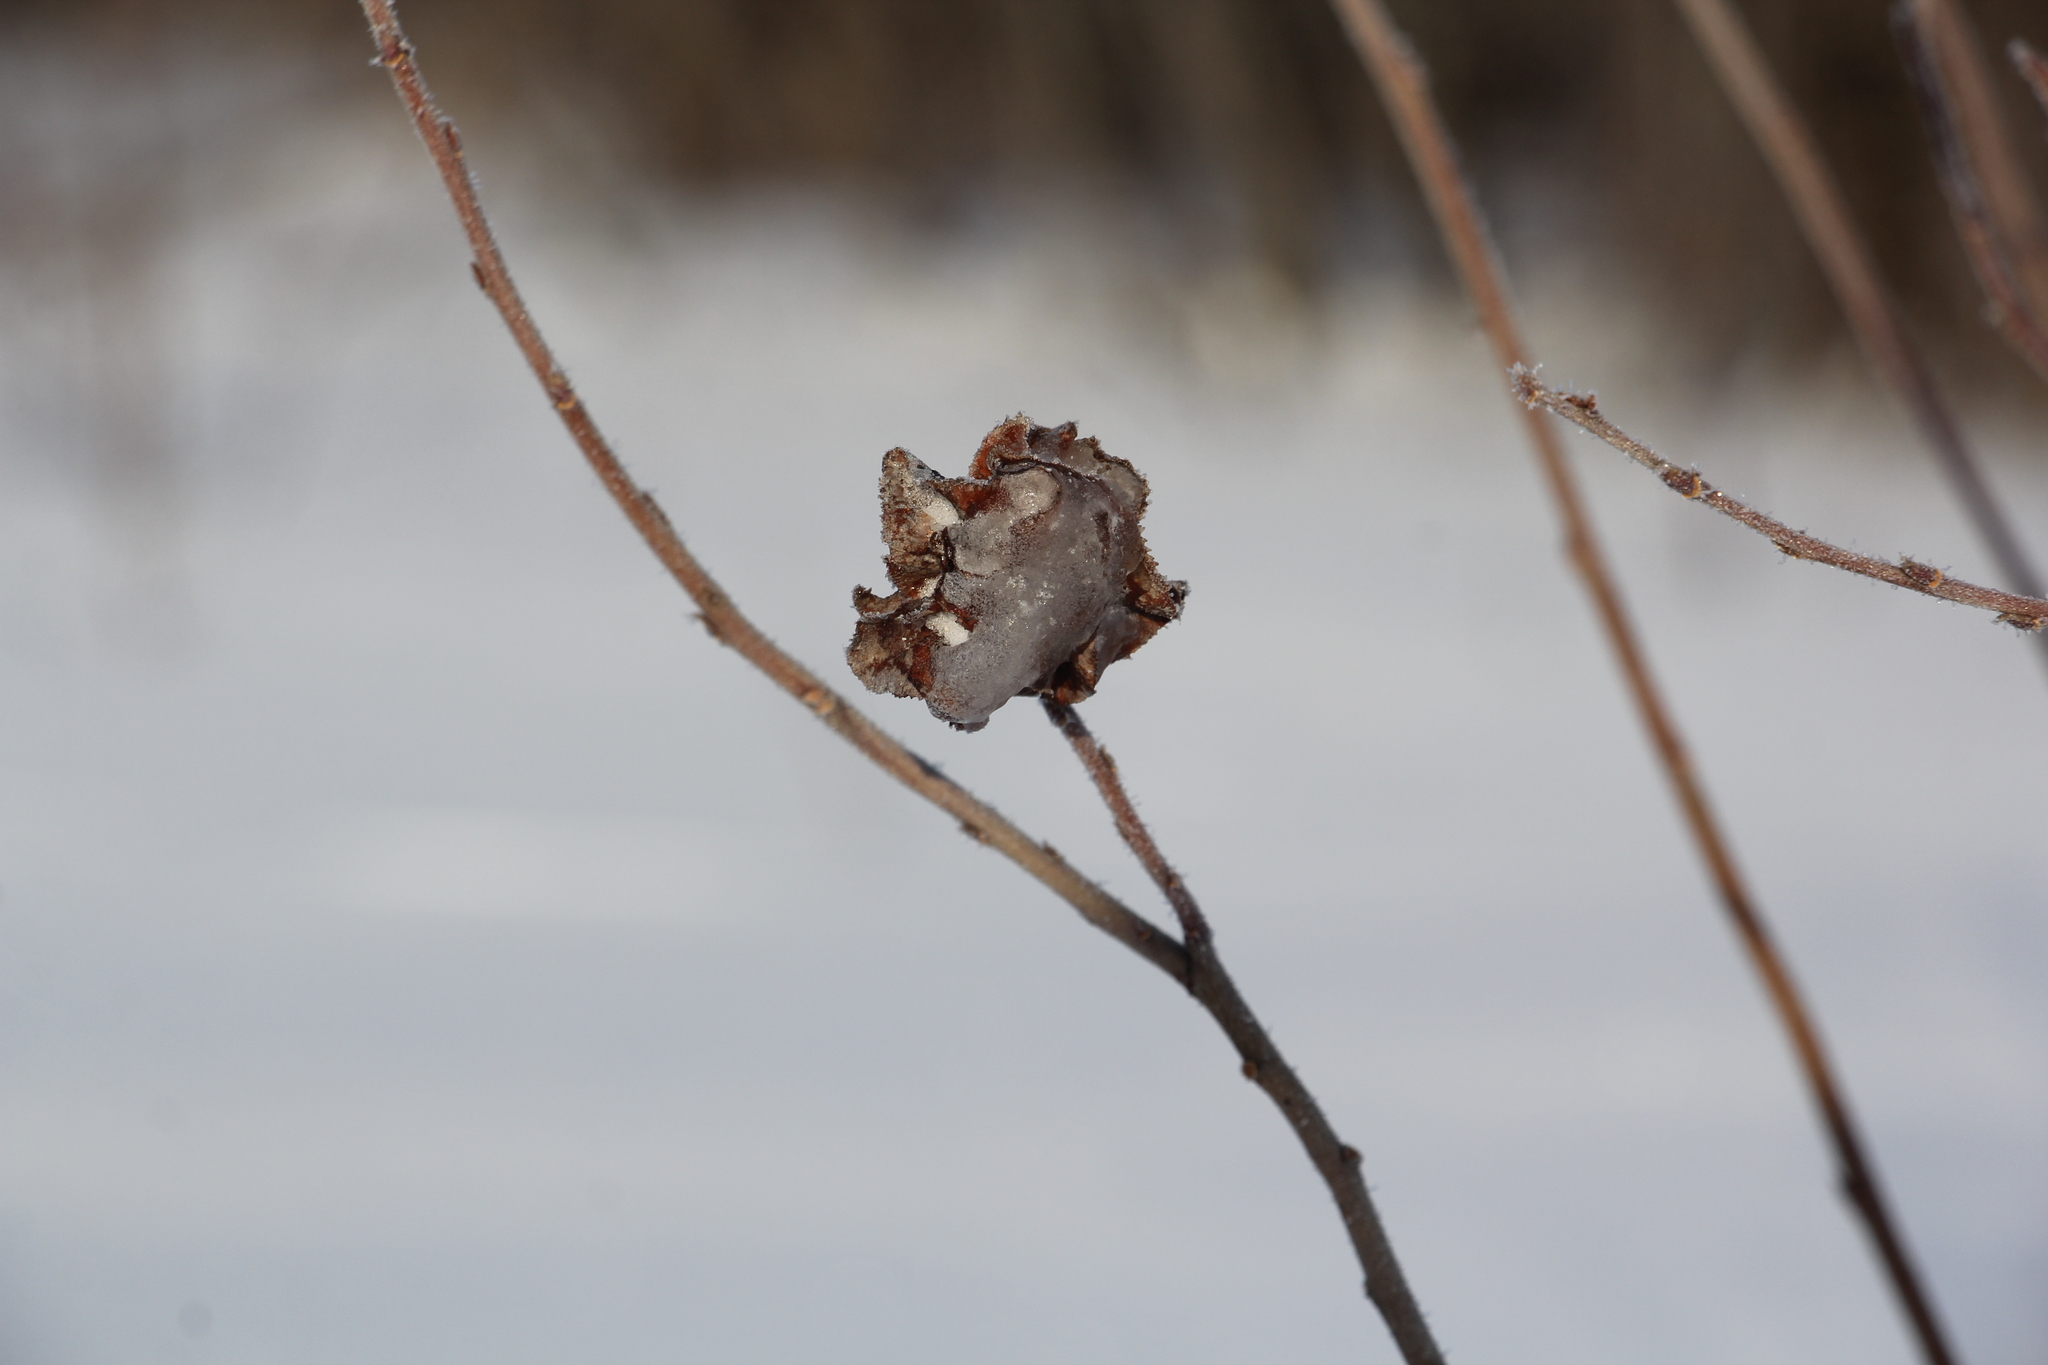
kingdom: Animalia
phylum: Arthropoda
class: Insecta
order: Diptera
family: Cecidomyiidae
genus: Rabdophaga
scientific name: Rabdophaga rosaria
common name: Willow rose gall midge
